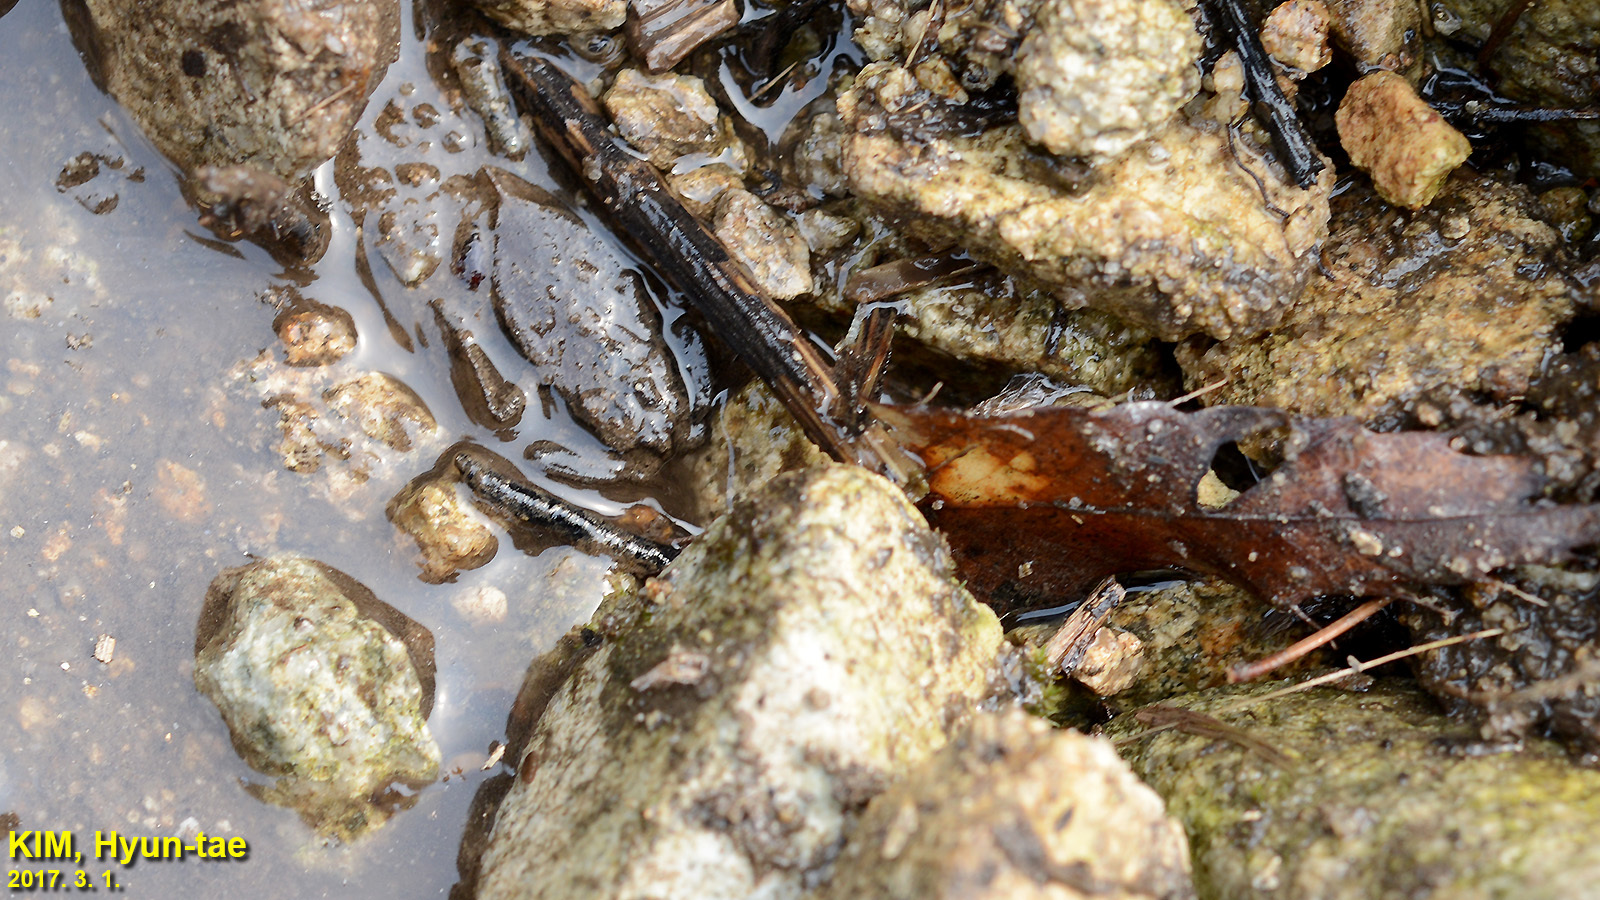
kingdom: Animalia
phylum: Arthropoda
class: Insecta
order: Hemiptera
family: Nepidae
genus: Nepa
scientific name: Nepa hoffmanni
